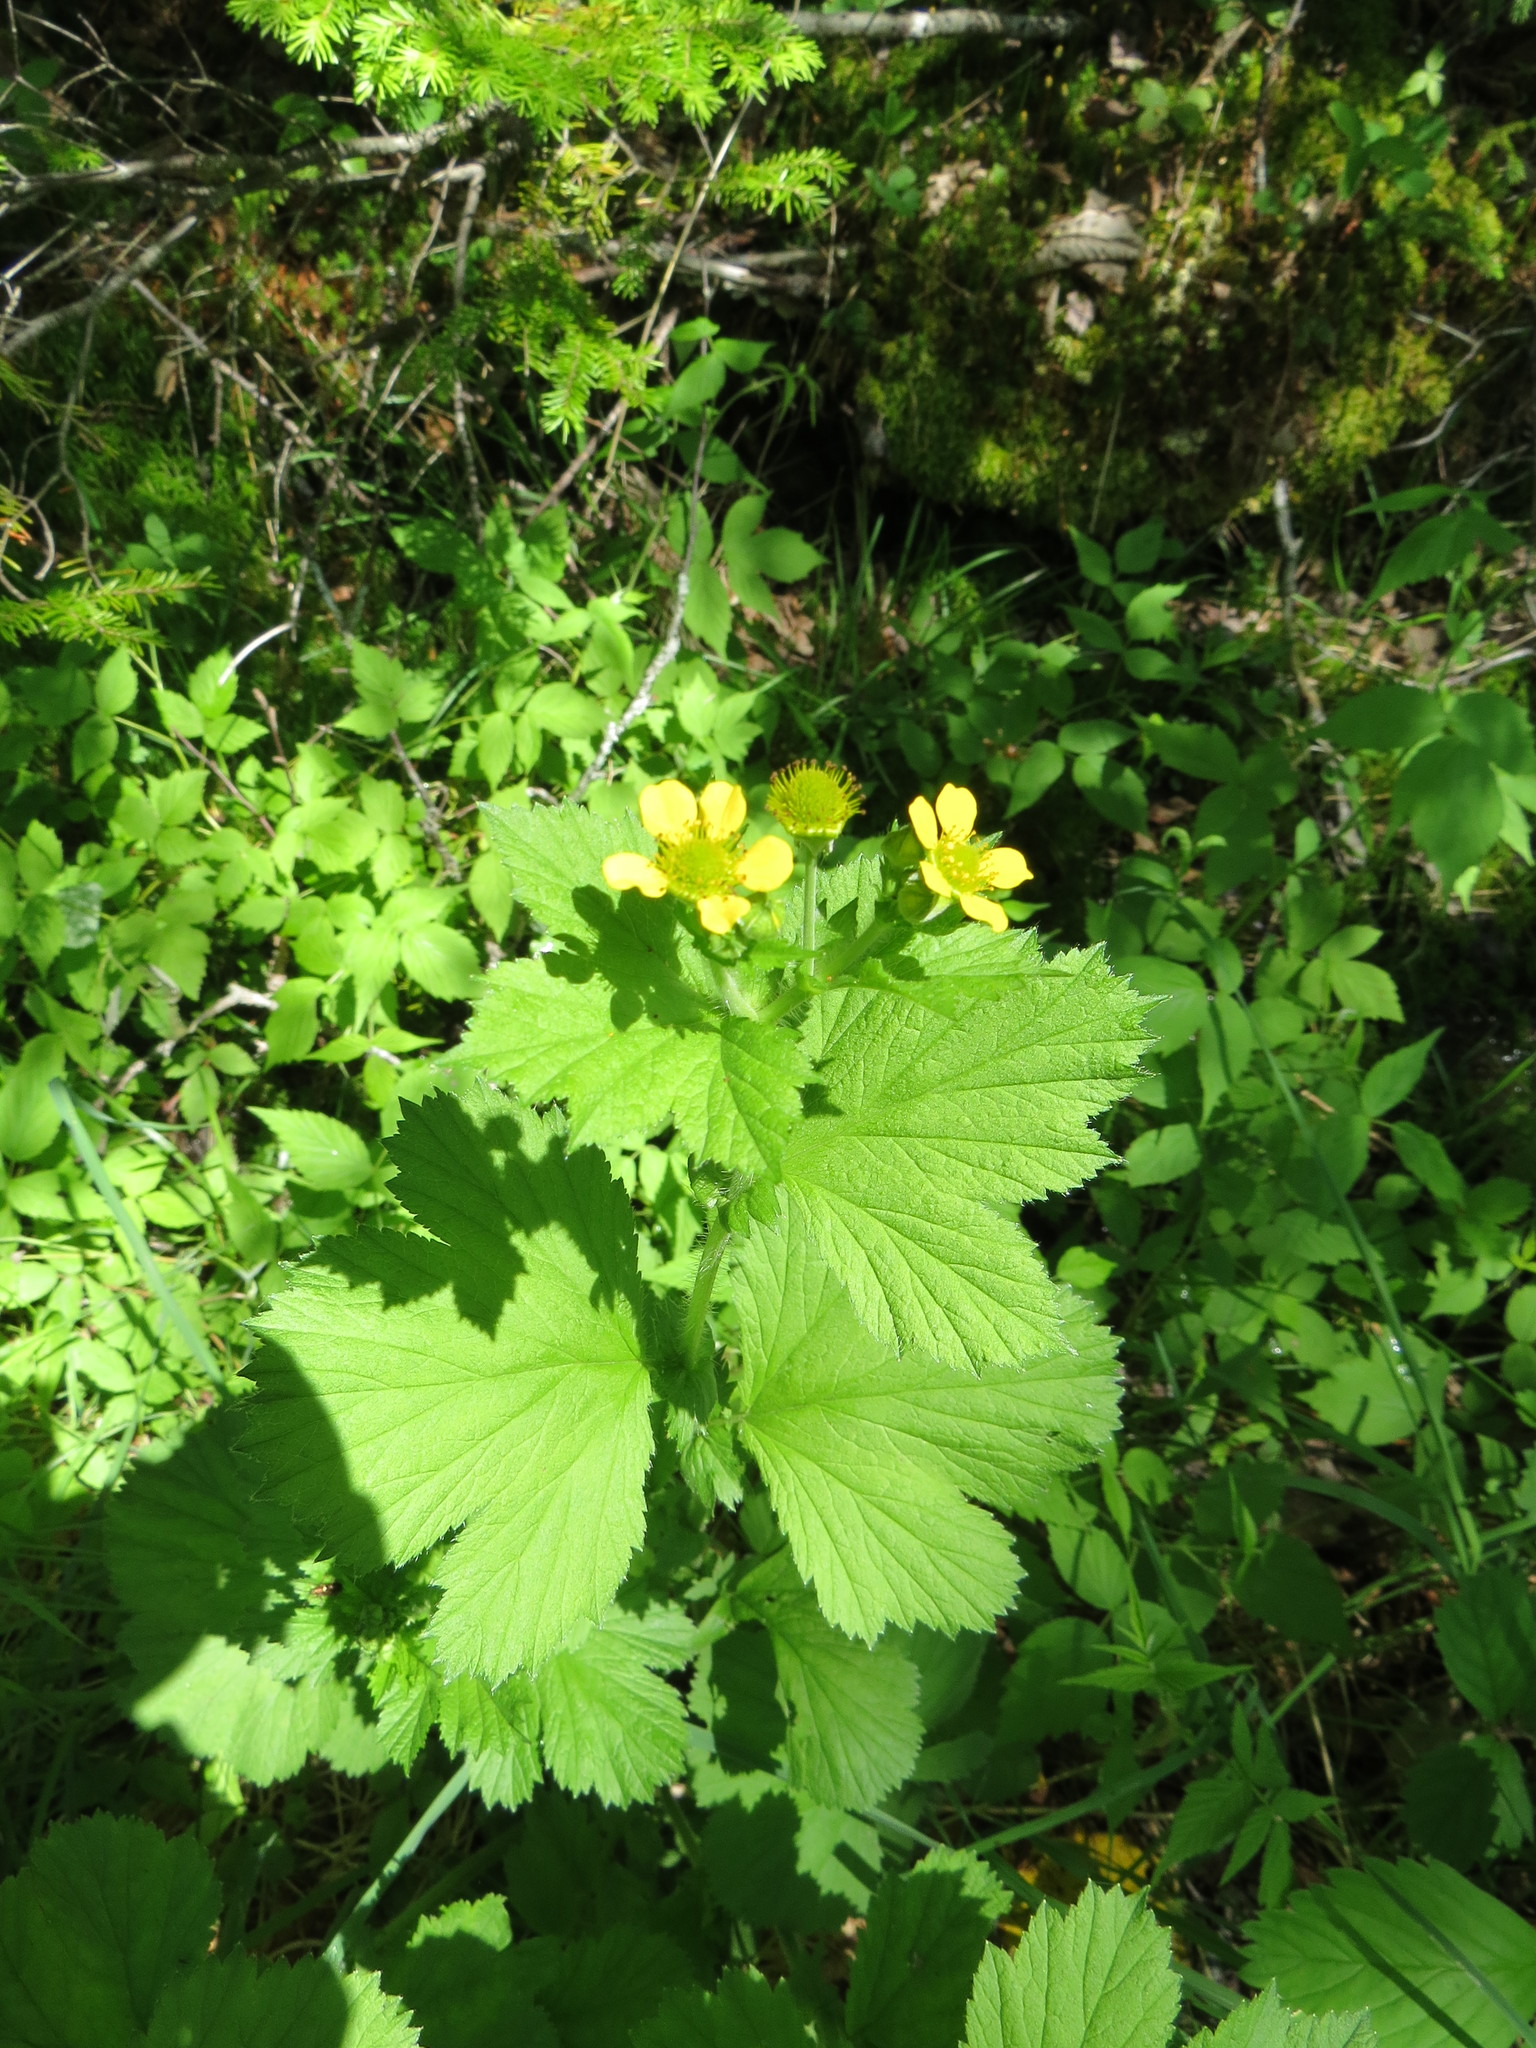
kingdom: Plantae
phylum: Tracheophyta
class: Magnoliopsida
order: Rosales
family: Rosaceae
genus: Geum
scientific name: Geum macrophyllum
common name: Large-leaved avens
